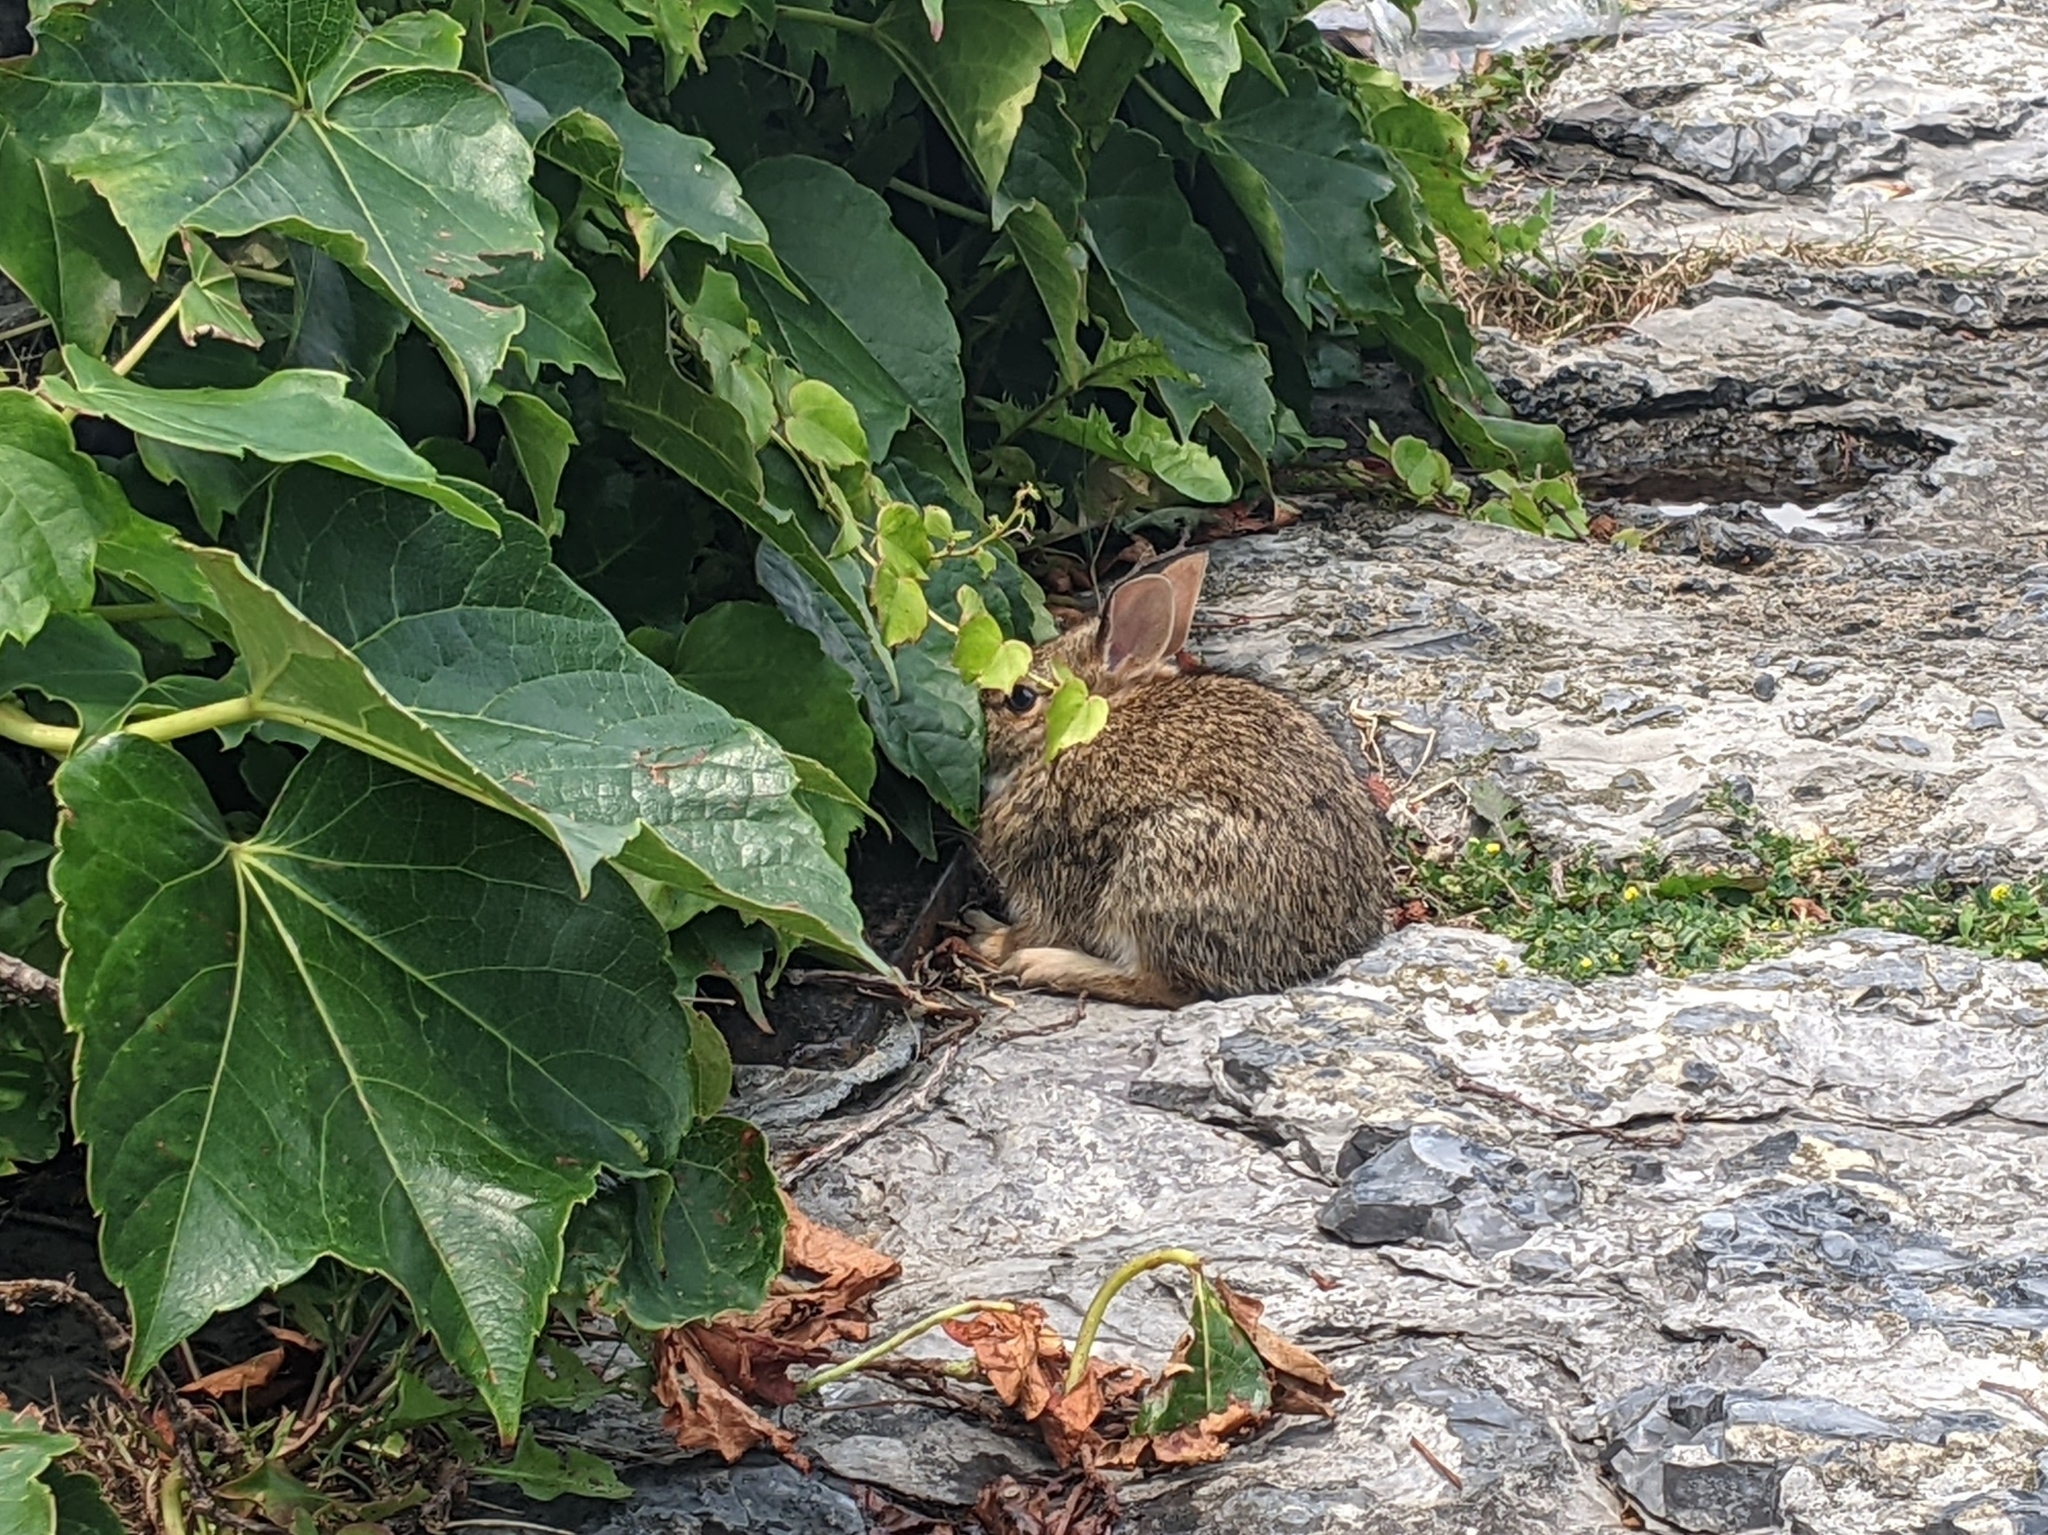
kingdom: Animalia
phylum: Chordata
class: Mammalia
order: Lagomorpha
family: Leporidae
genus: Sylvilagus
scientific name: Sylvilagus floridanus
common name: Eastern cottontail
